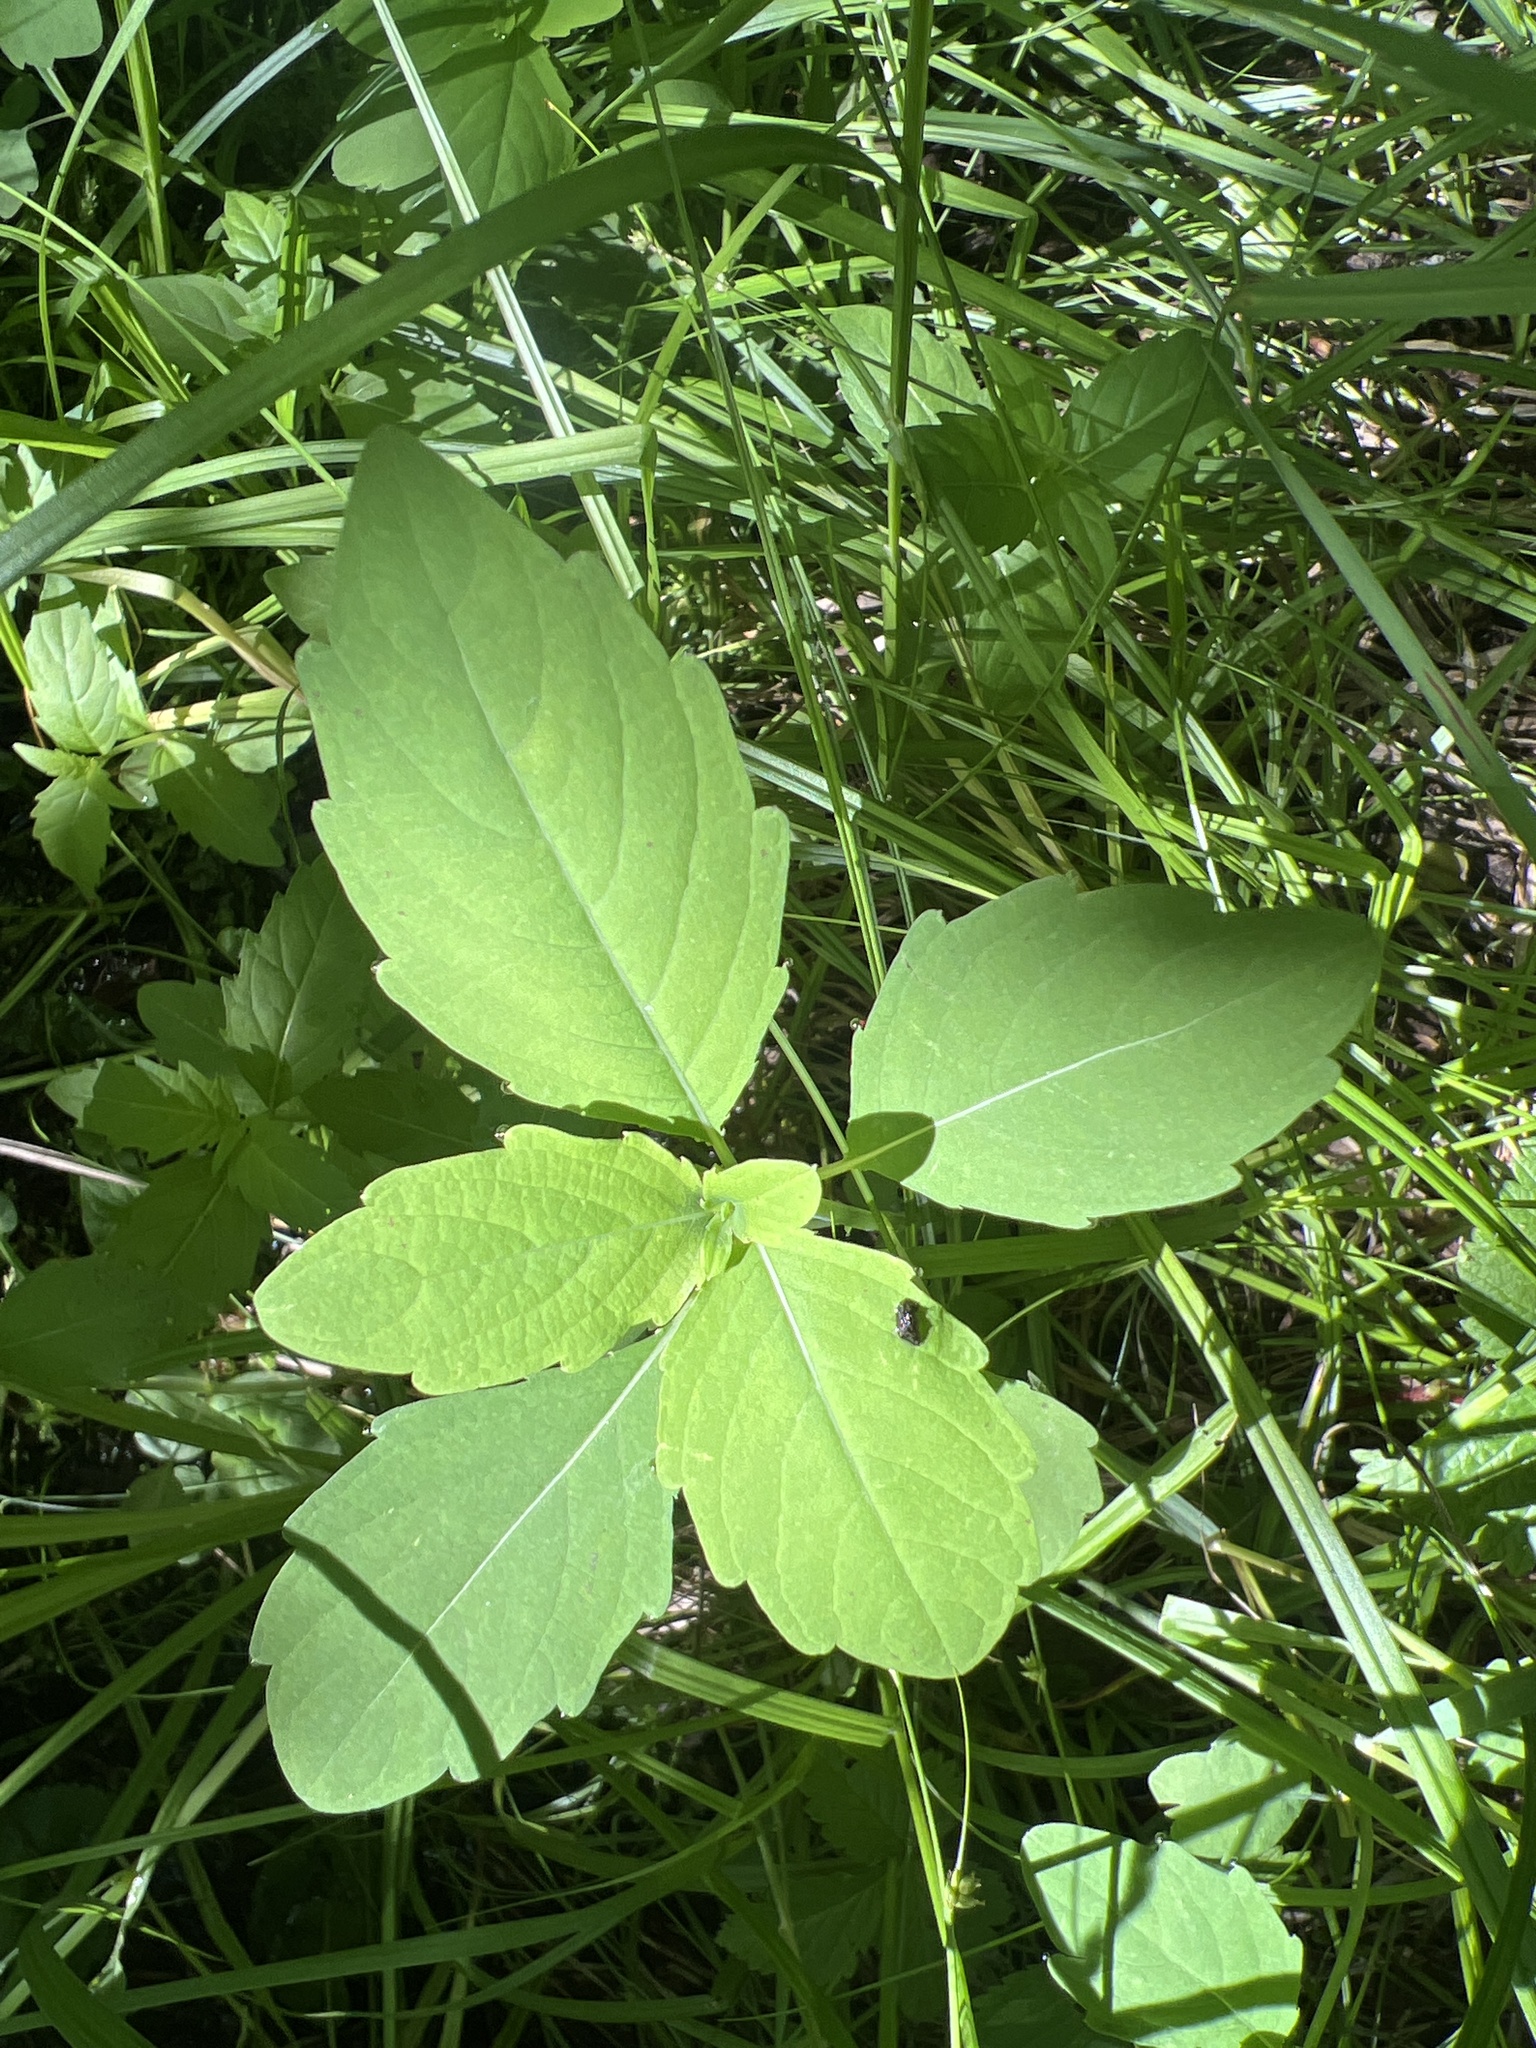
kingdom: Plantae
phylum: Tracheophyta
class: Magnoliopsida
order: Ericales
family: Balsaminaceae
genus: Impatiens
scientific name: Impatiens capensis
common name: Orange balsam
